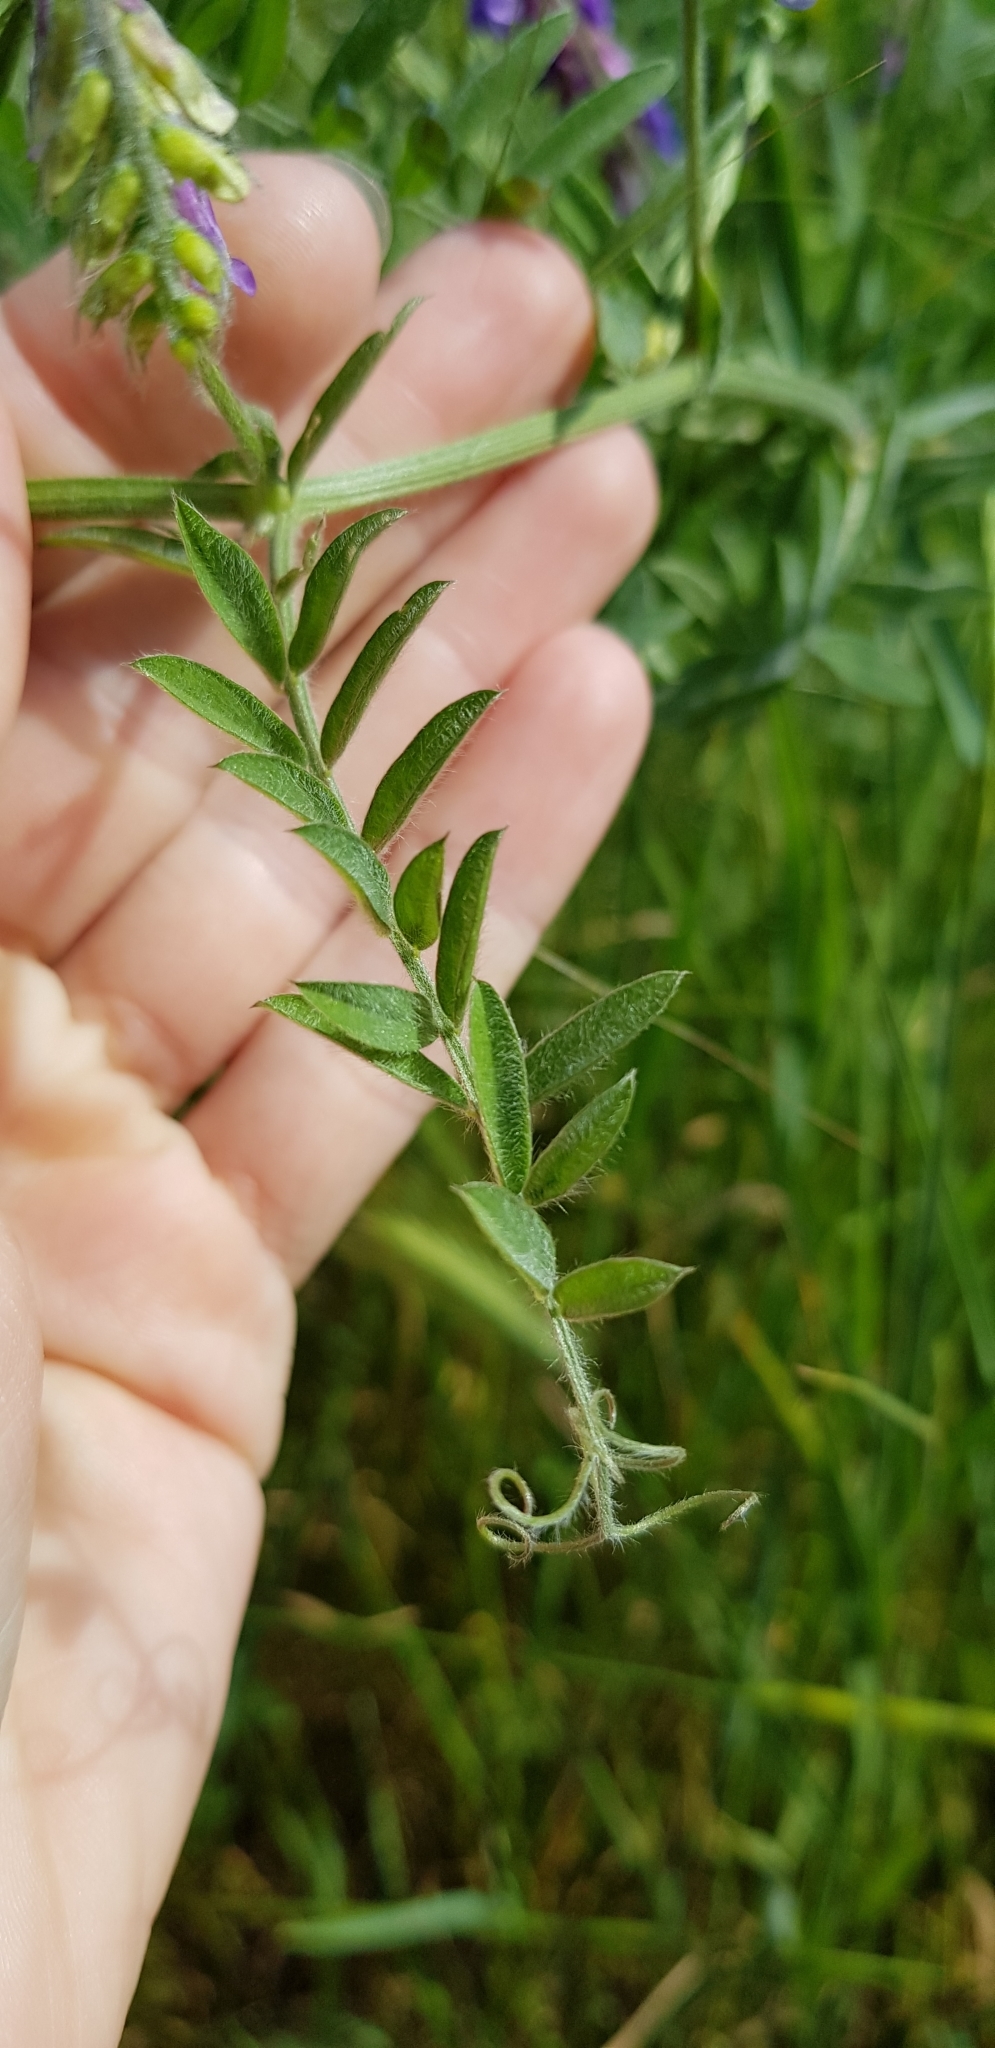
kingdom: Plantae
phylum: Tracheophyta
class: Magnoliopsida
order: Fabales
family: Fabaceae
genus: Vicia
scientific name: Vicia villosa
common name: Fodder vetch
